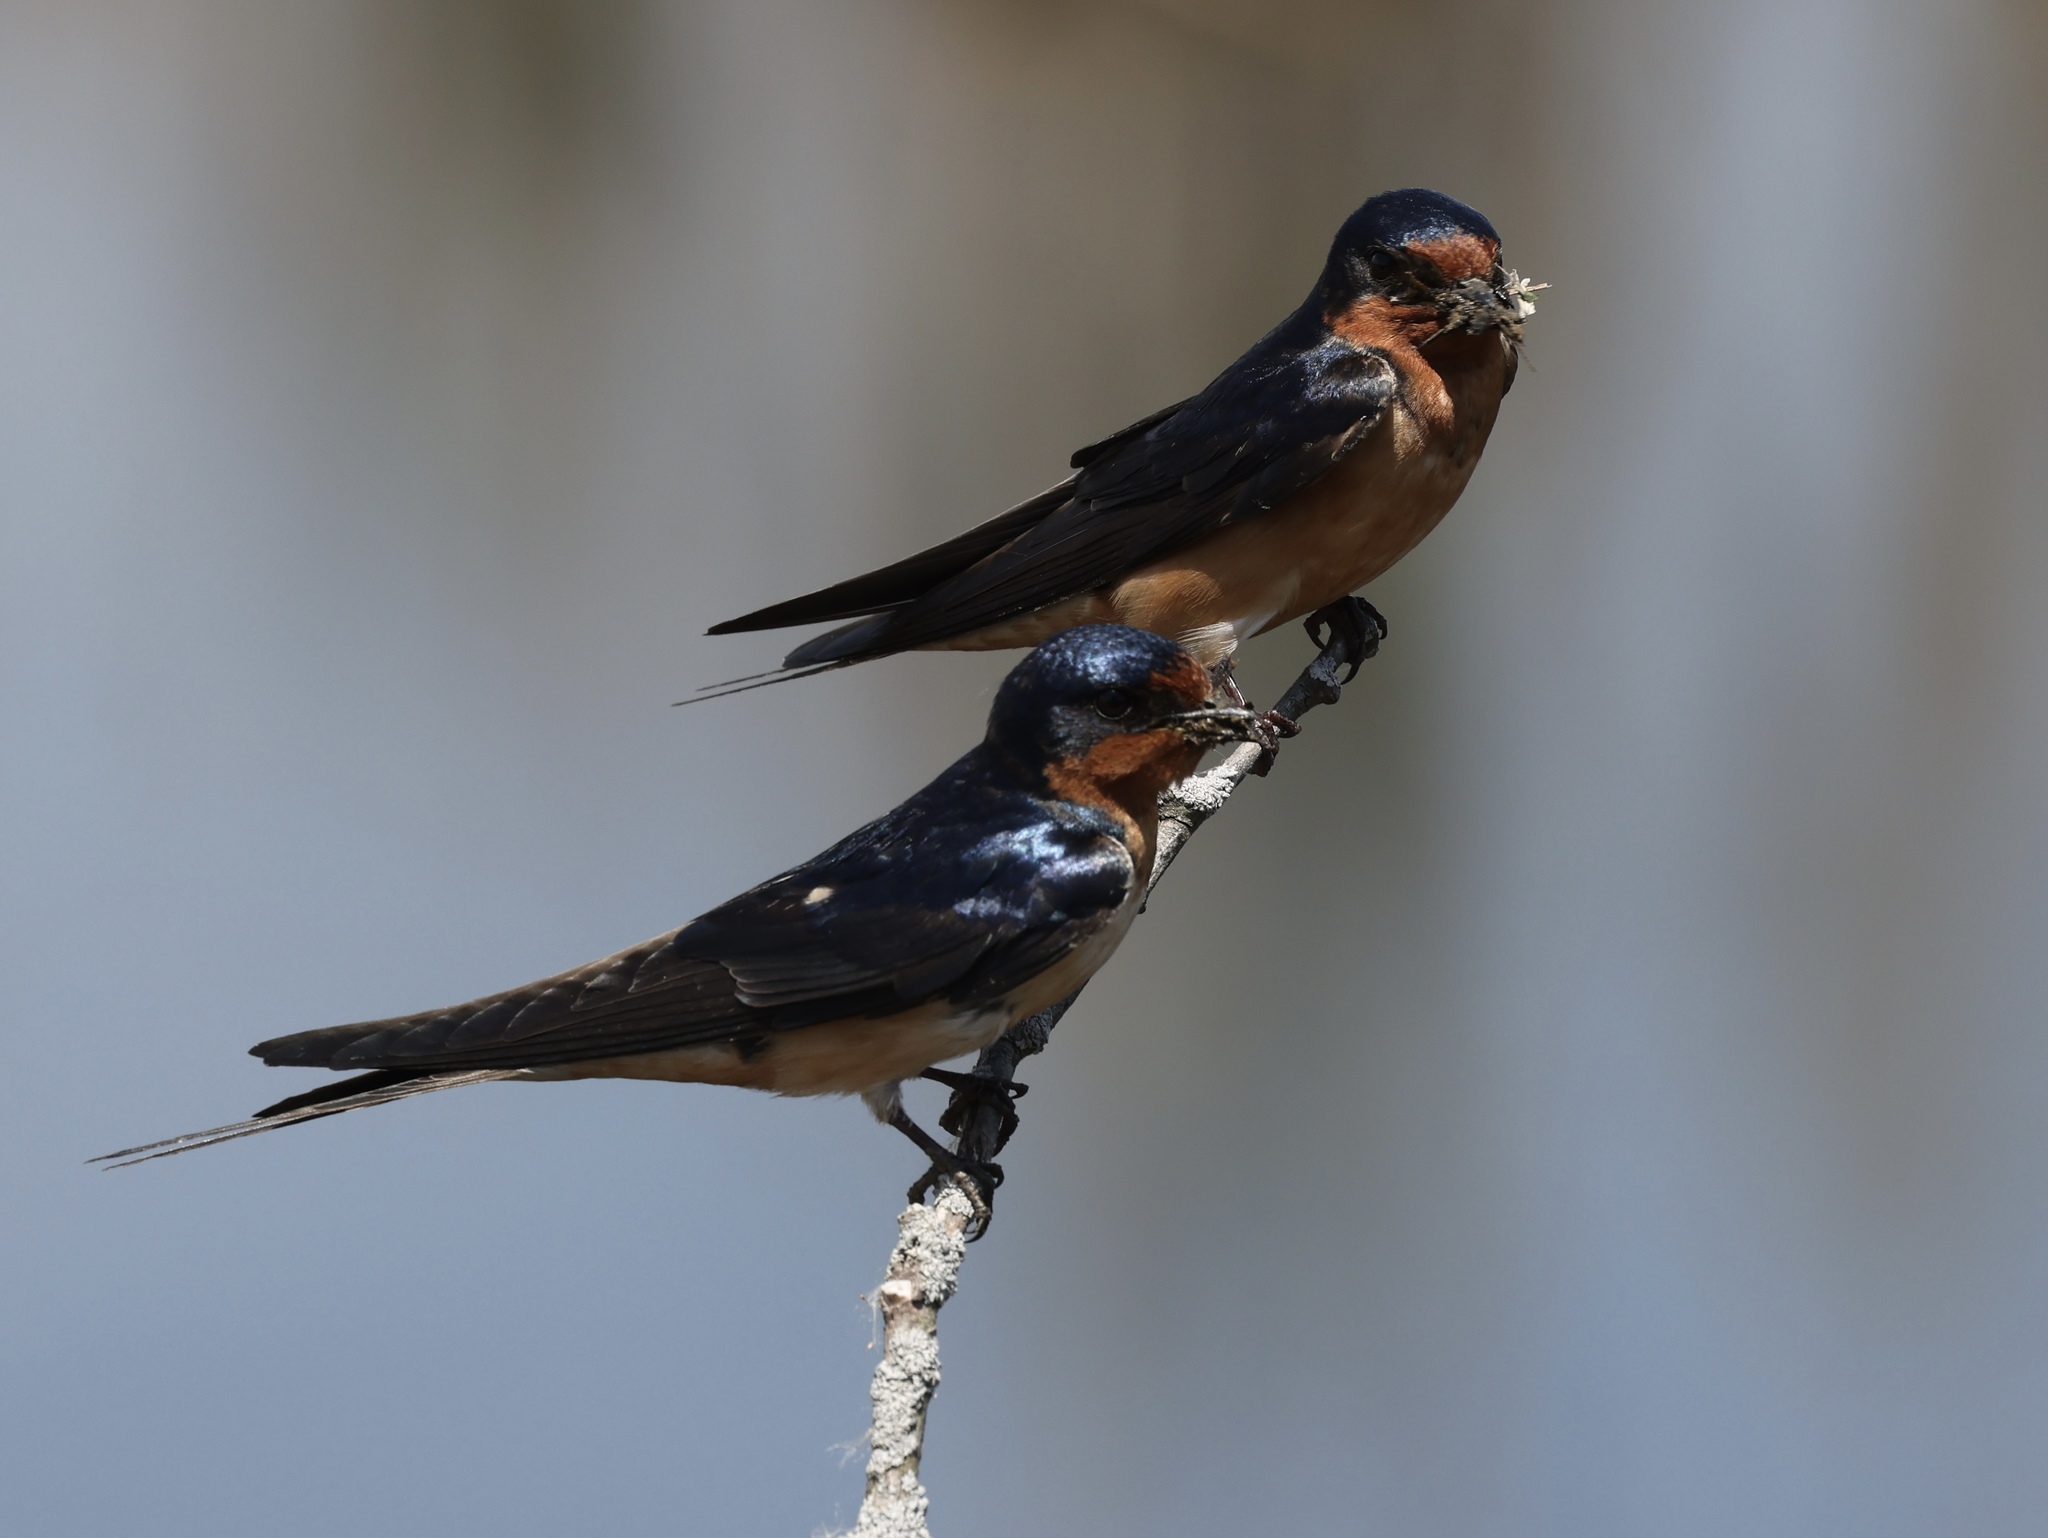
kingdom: Animalia
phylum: Chordata
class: Aves
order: Passeriformes
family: Hirundinidae
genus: Hirundo
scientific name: Hirundo rustica
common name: Barn swallow
